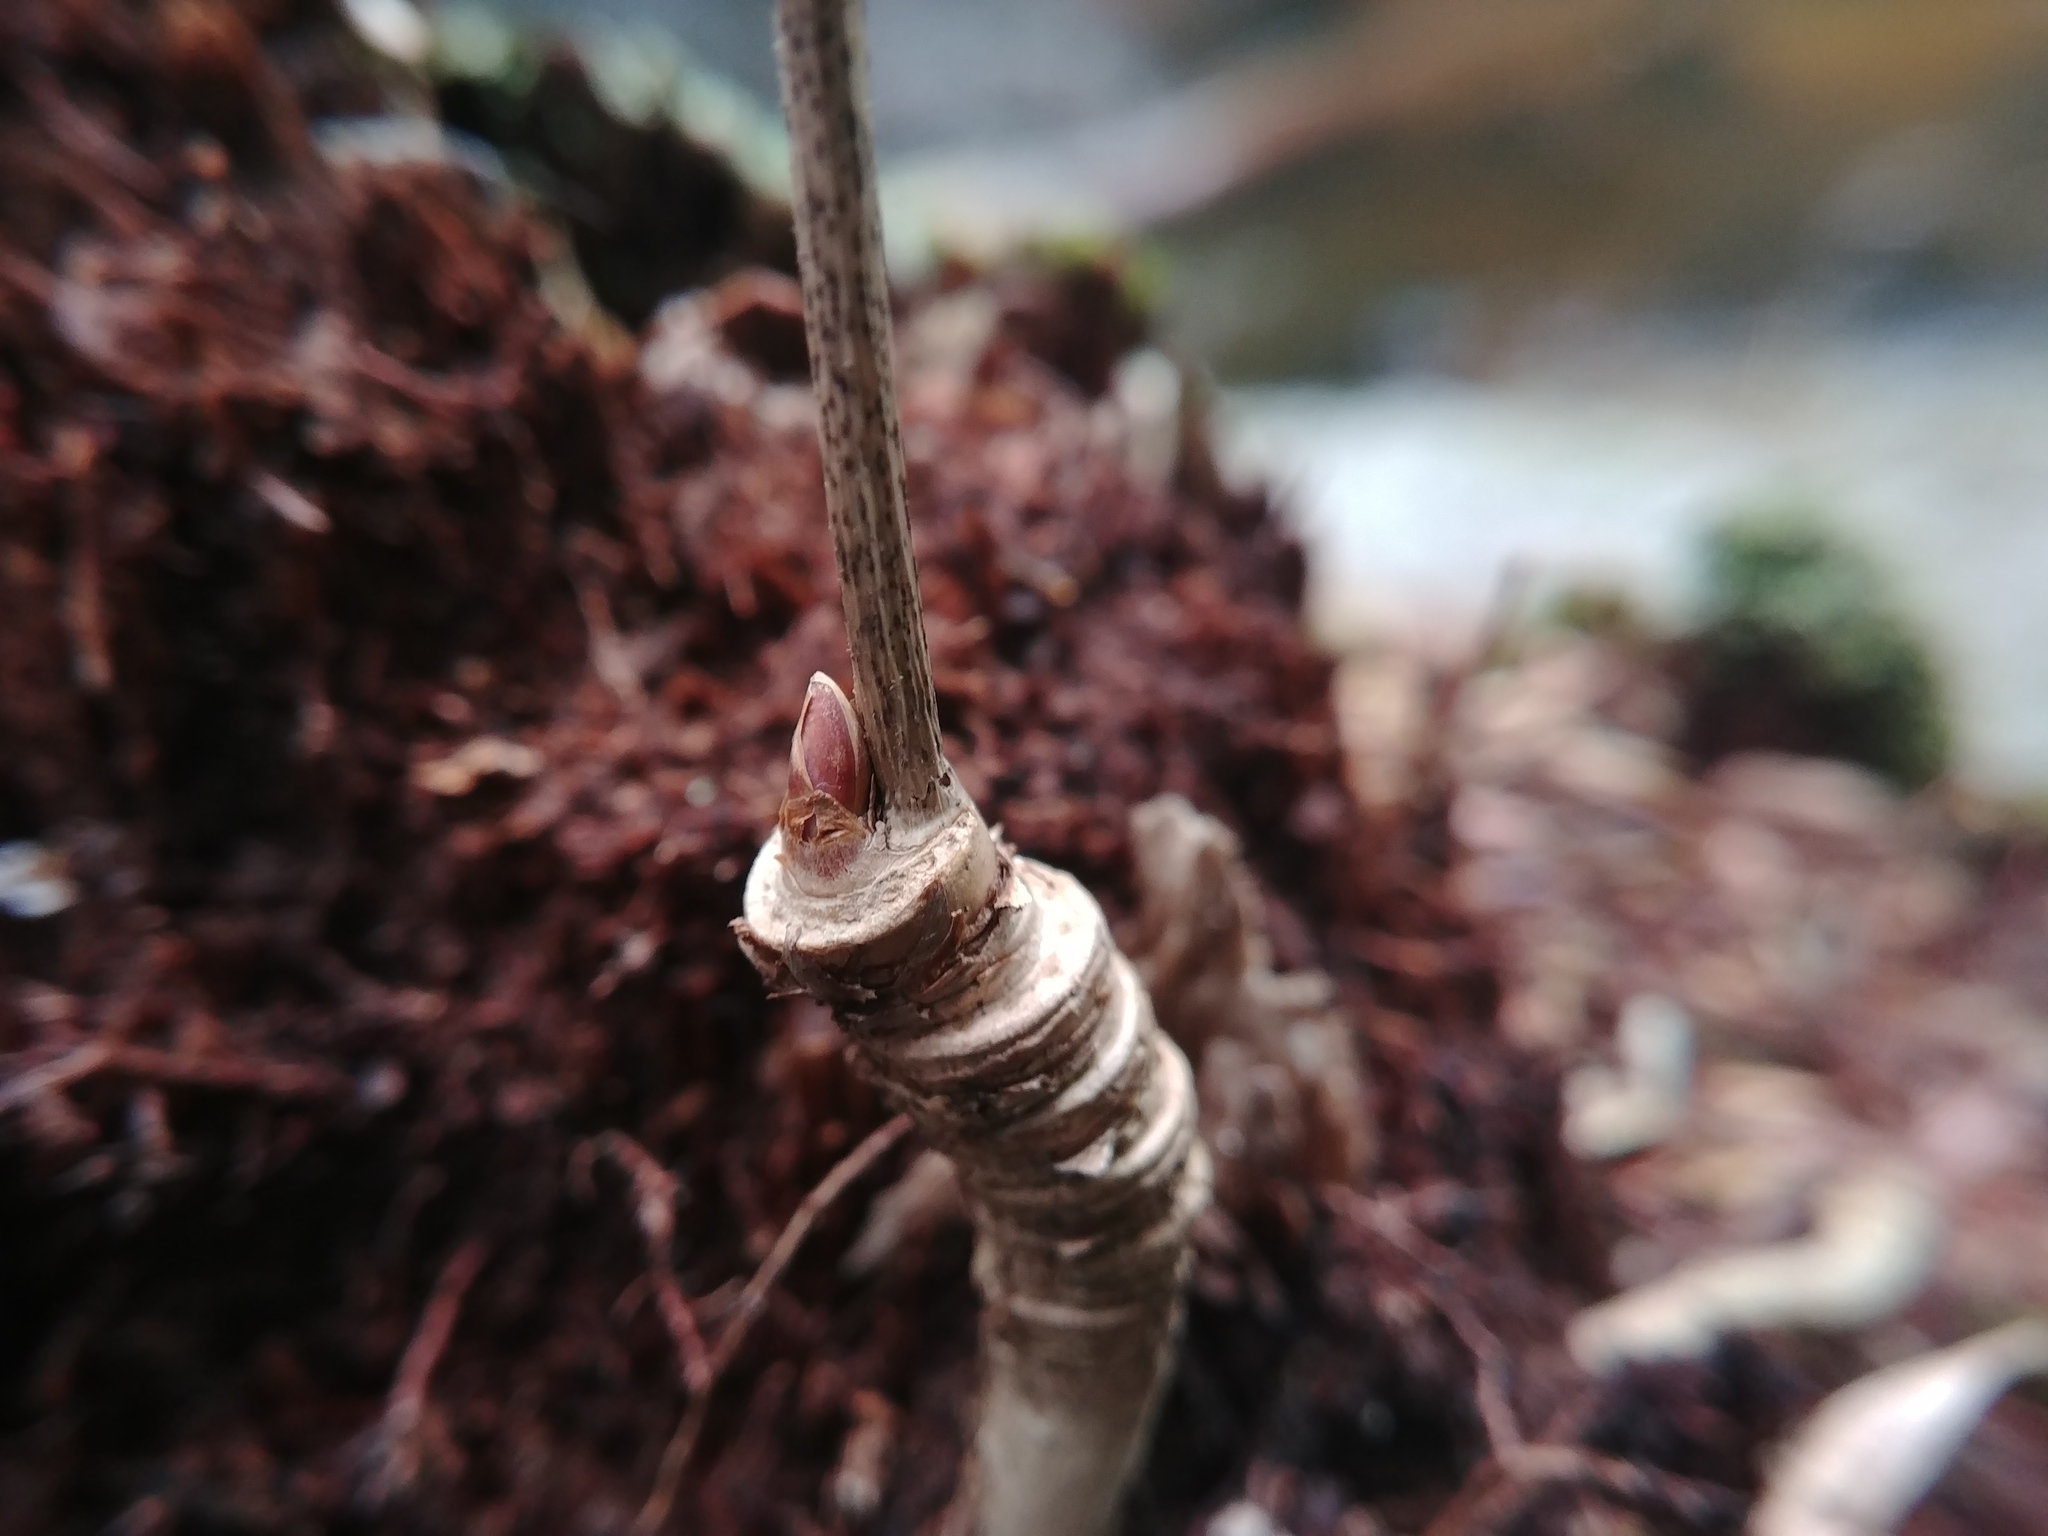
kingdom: Plantae
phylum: Tracheophyta
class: Magnoliopsida
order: Apiales
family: Araliaceae
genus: Aralia
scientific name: Aralia nudicaulis
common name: Wild sarsaparilla
